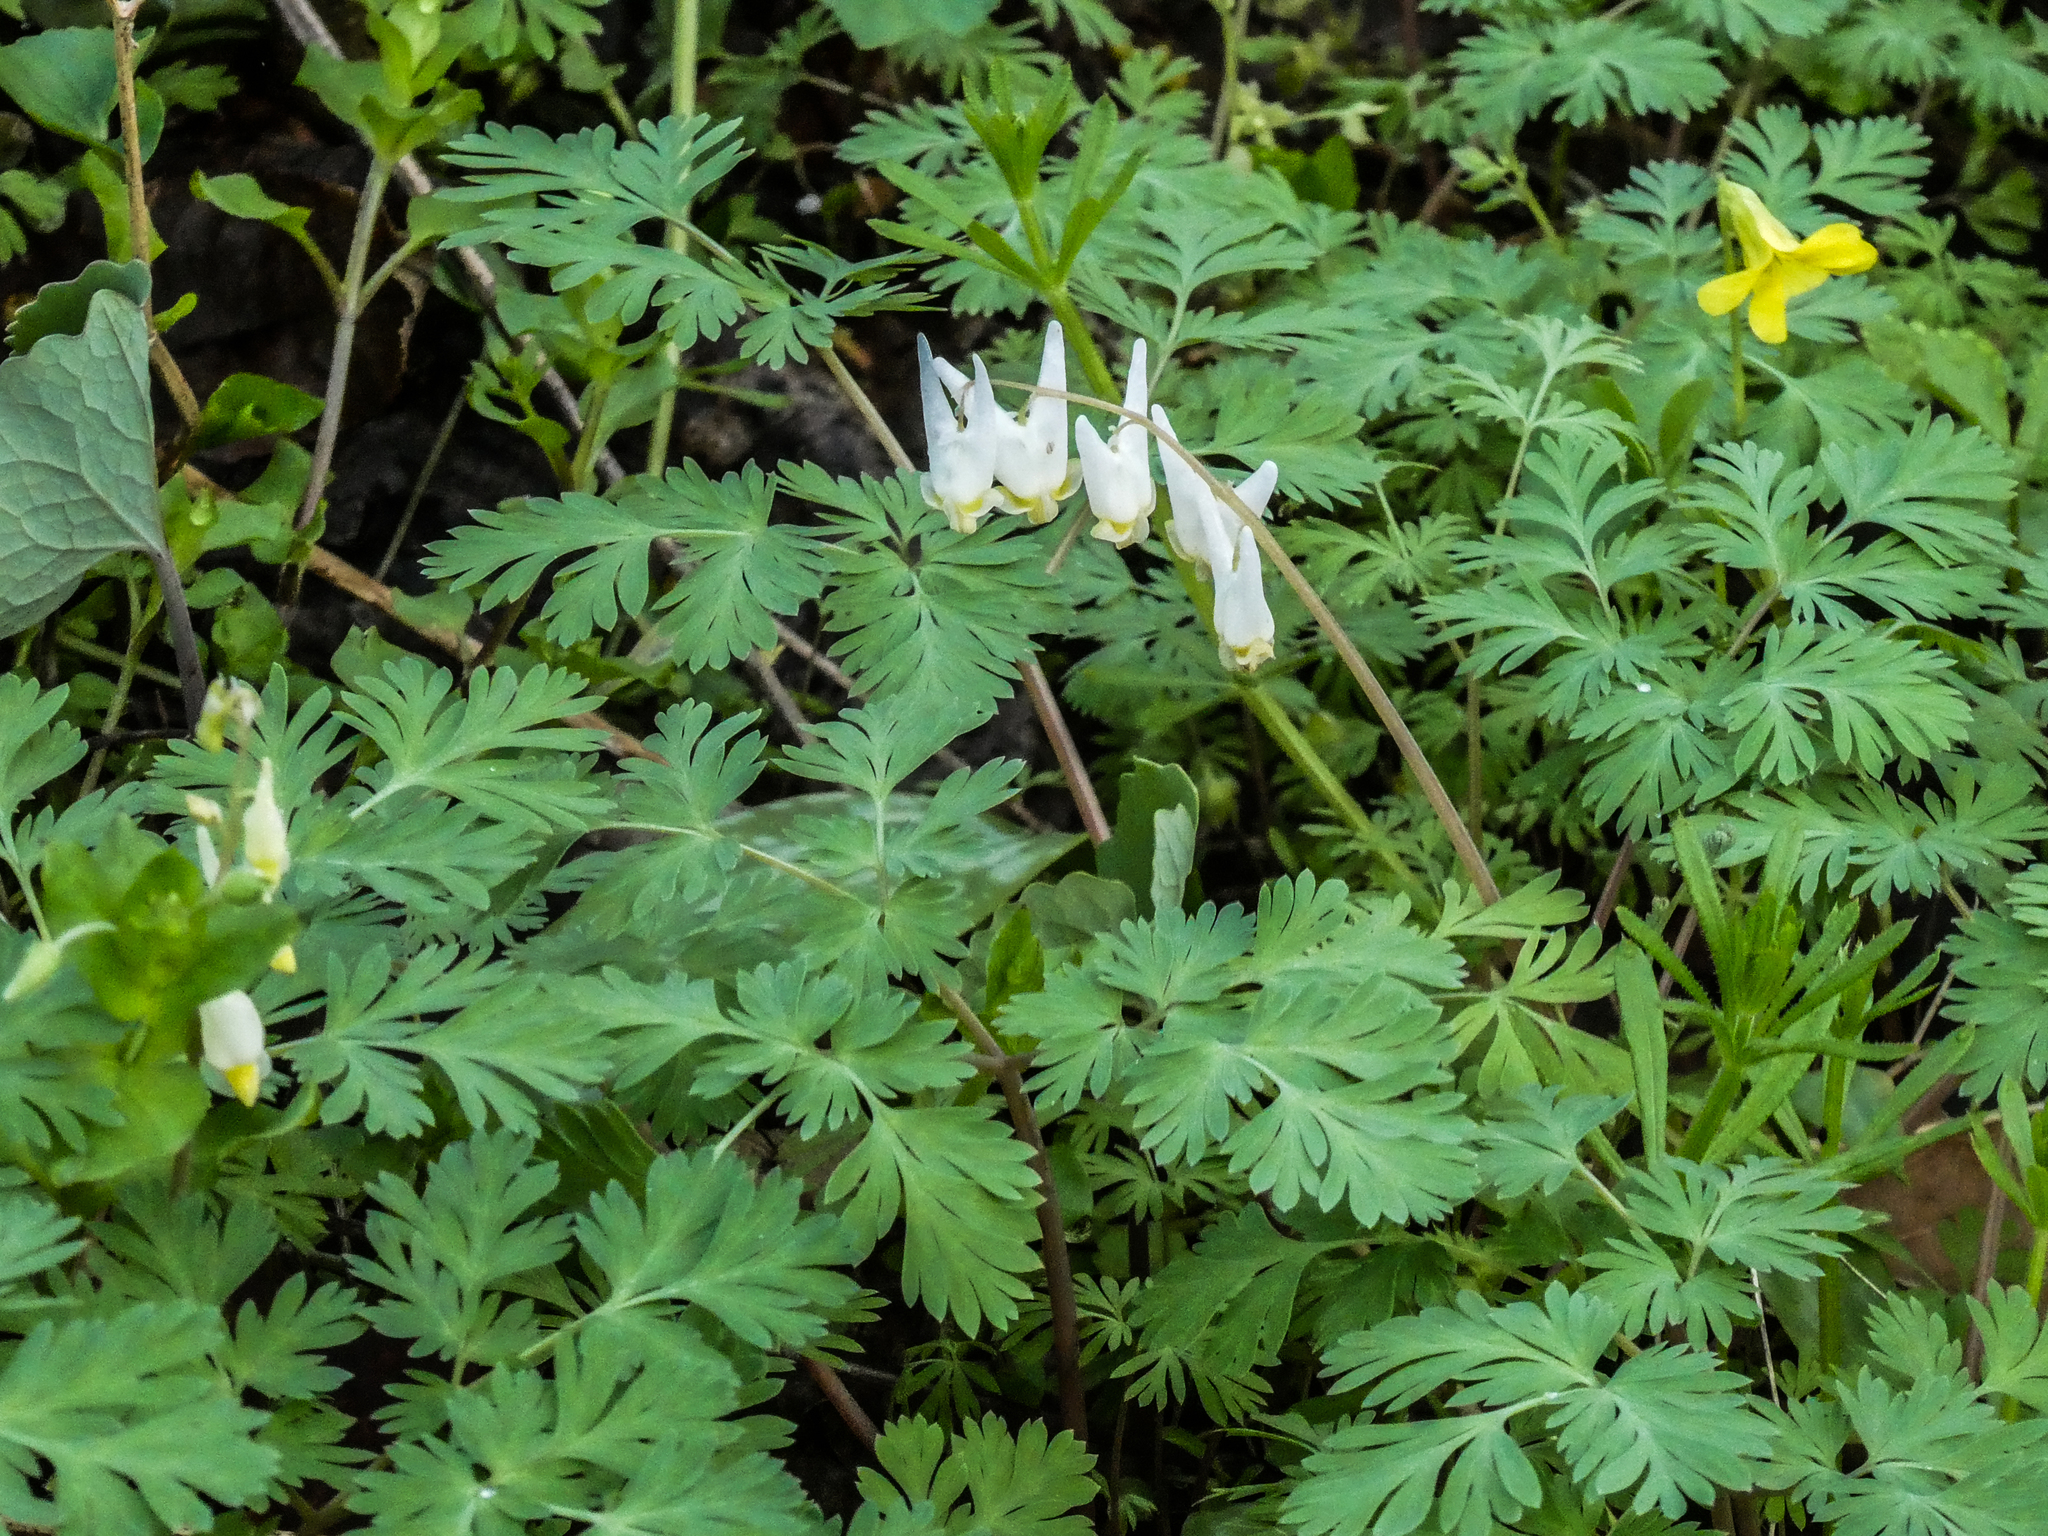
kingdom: Plantae
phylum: Tracheophyta
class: Magnoliopsida
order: Ranunculales
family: Papaveraceae
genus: Dicentra
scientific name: Dicentra cucullaria
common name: Dutchman's breeches
